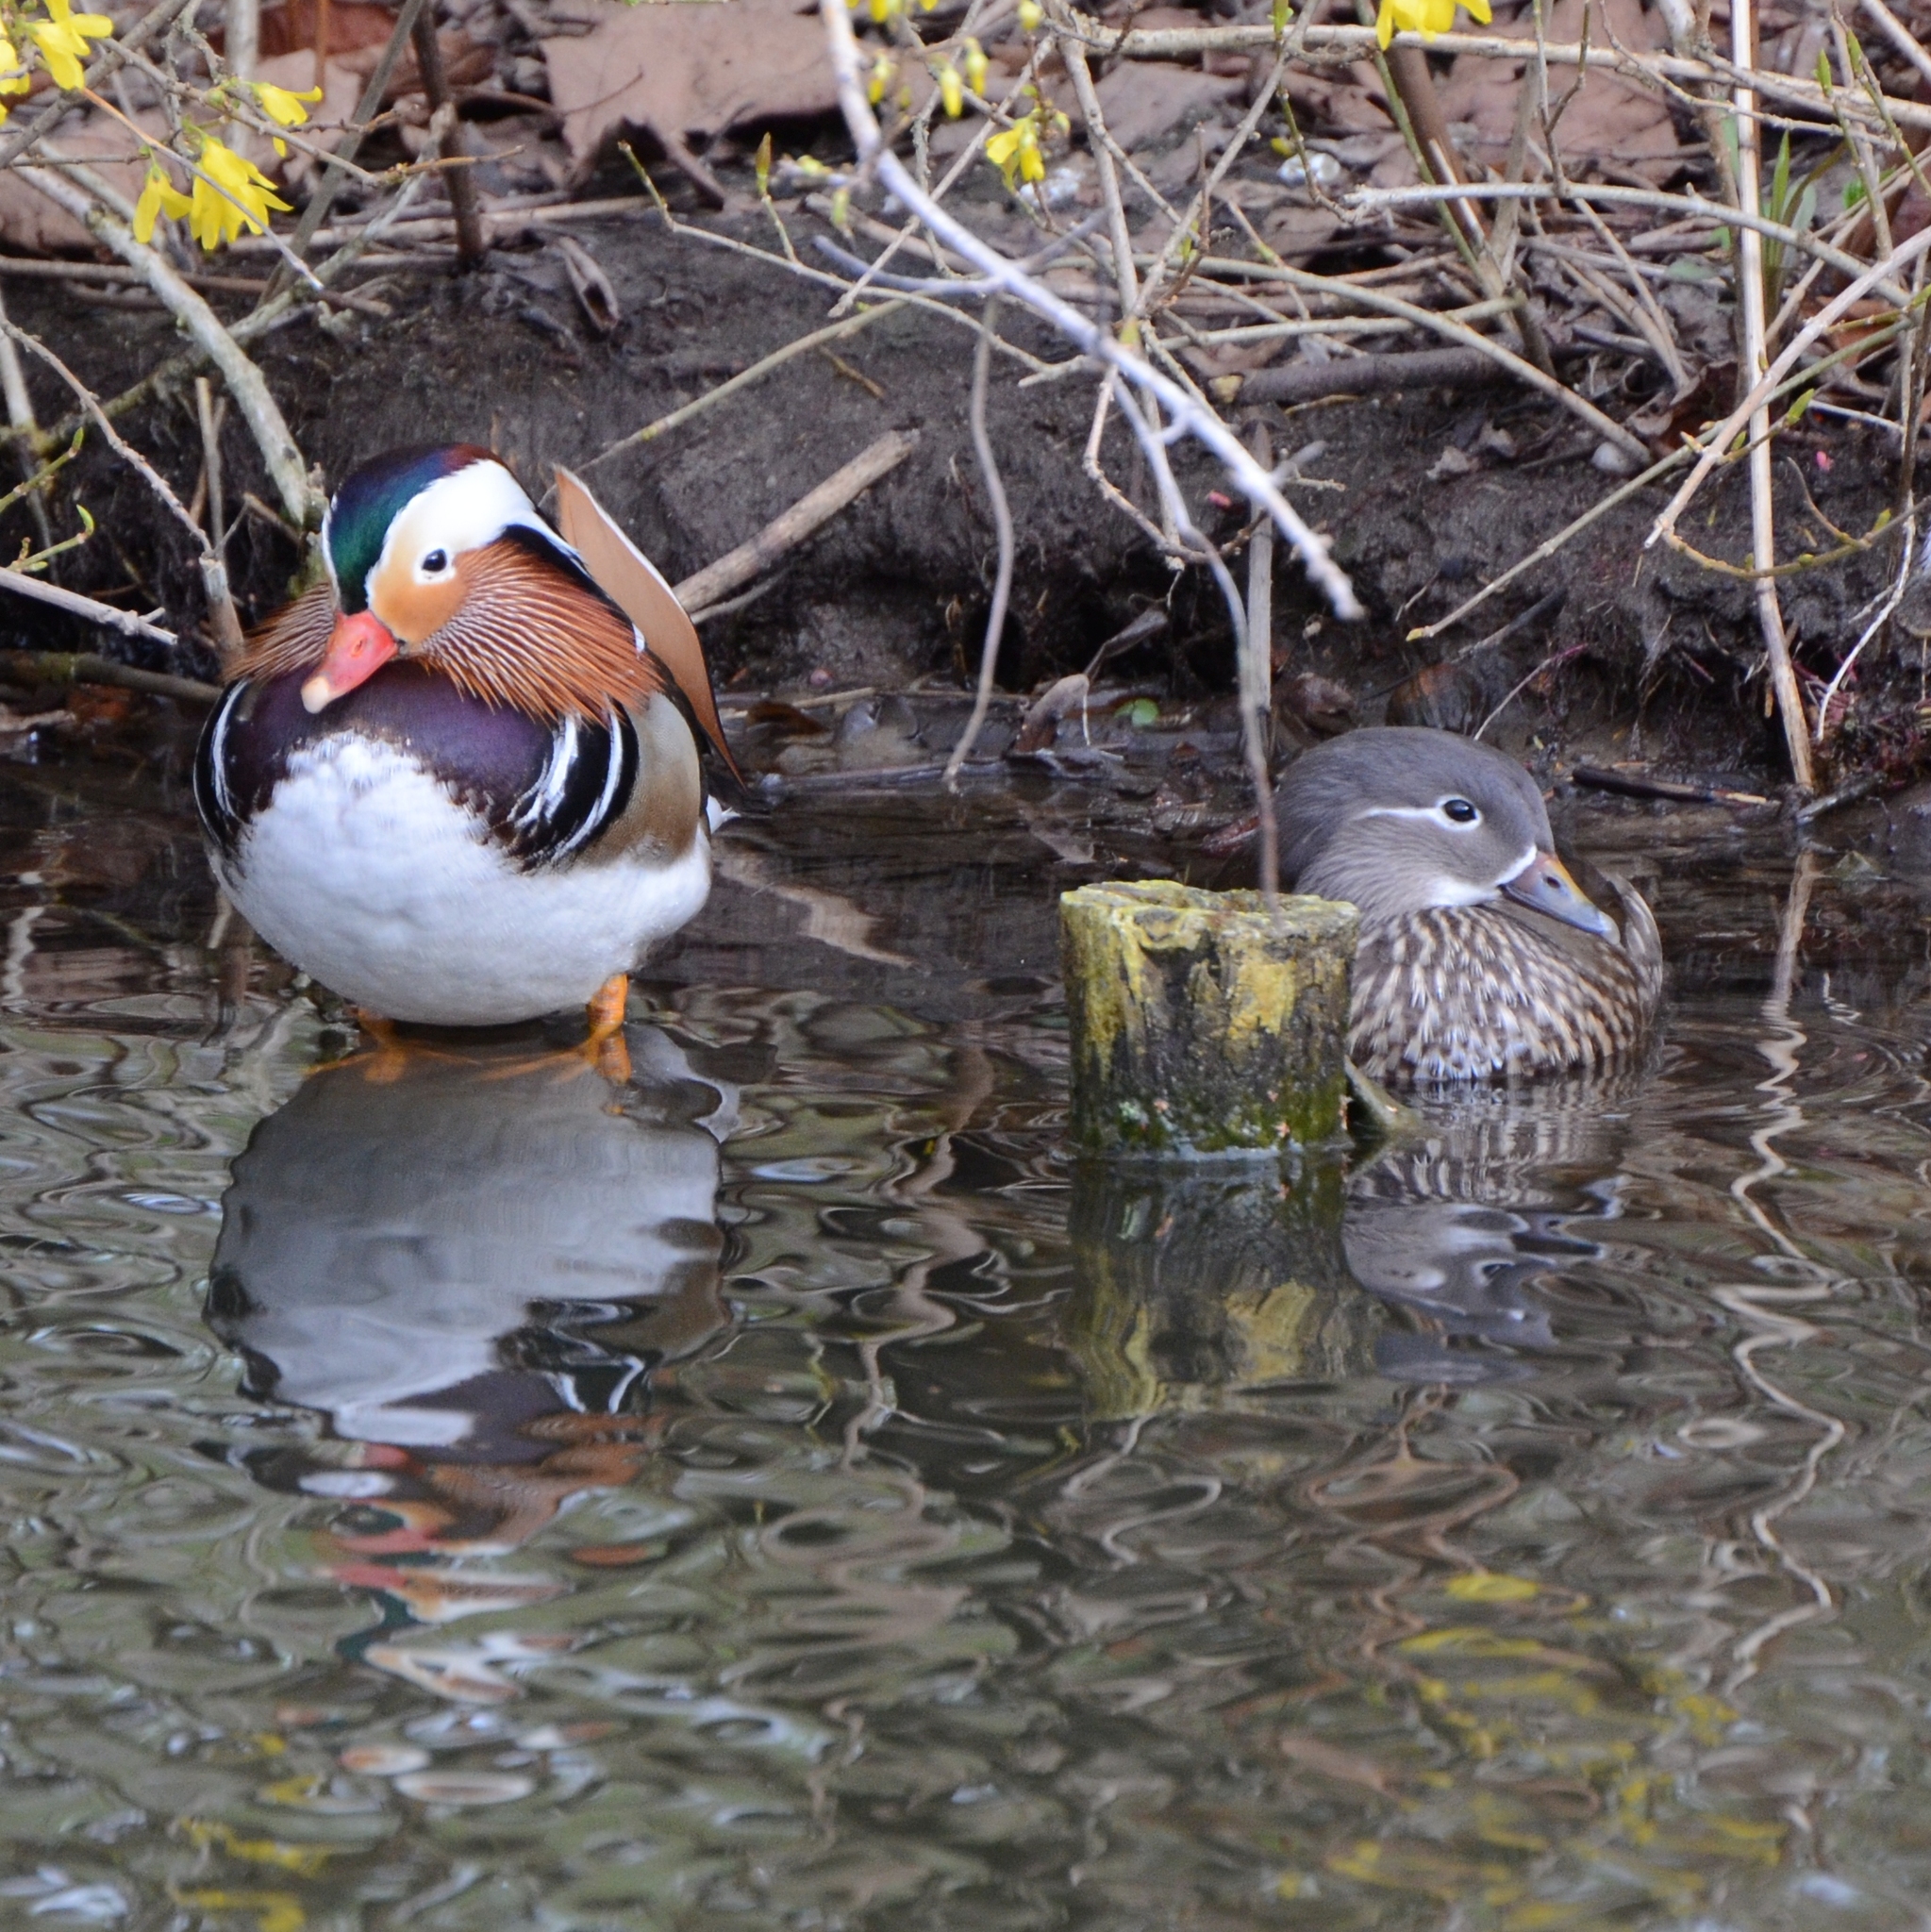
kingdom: Animalia
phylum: Chordata
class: Aves
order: Anseriformes
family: Anatidae
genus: Aix
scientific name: Aix galericulata
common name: Mandarin duck
